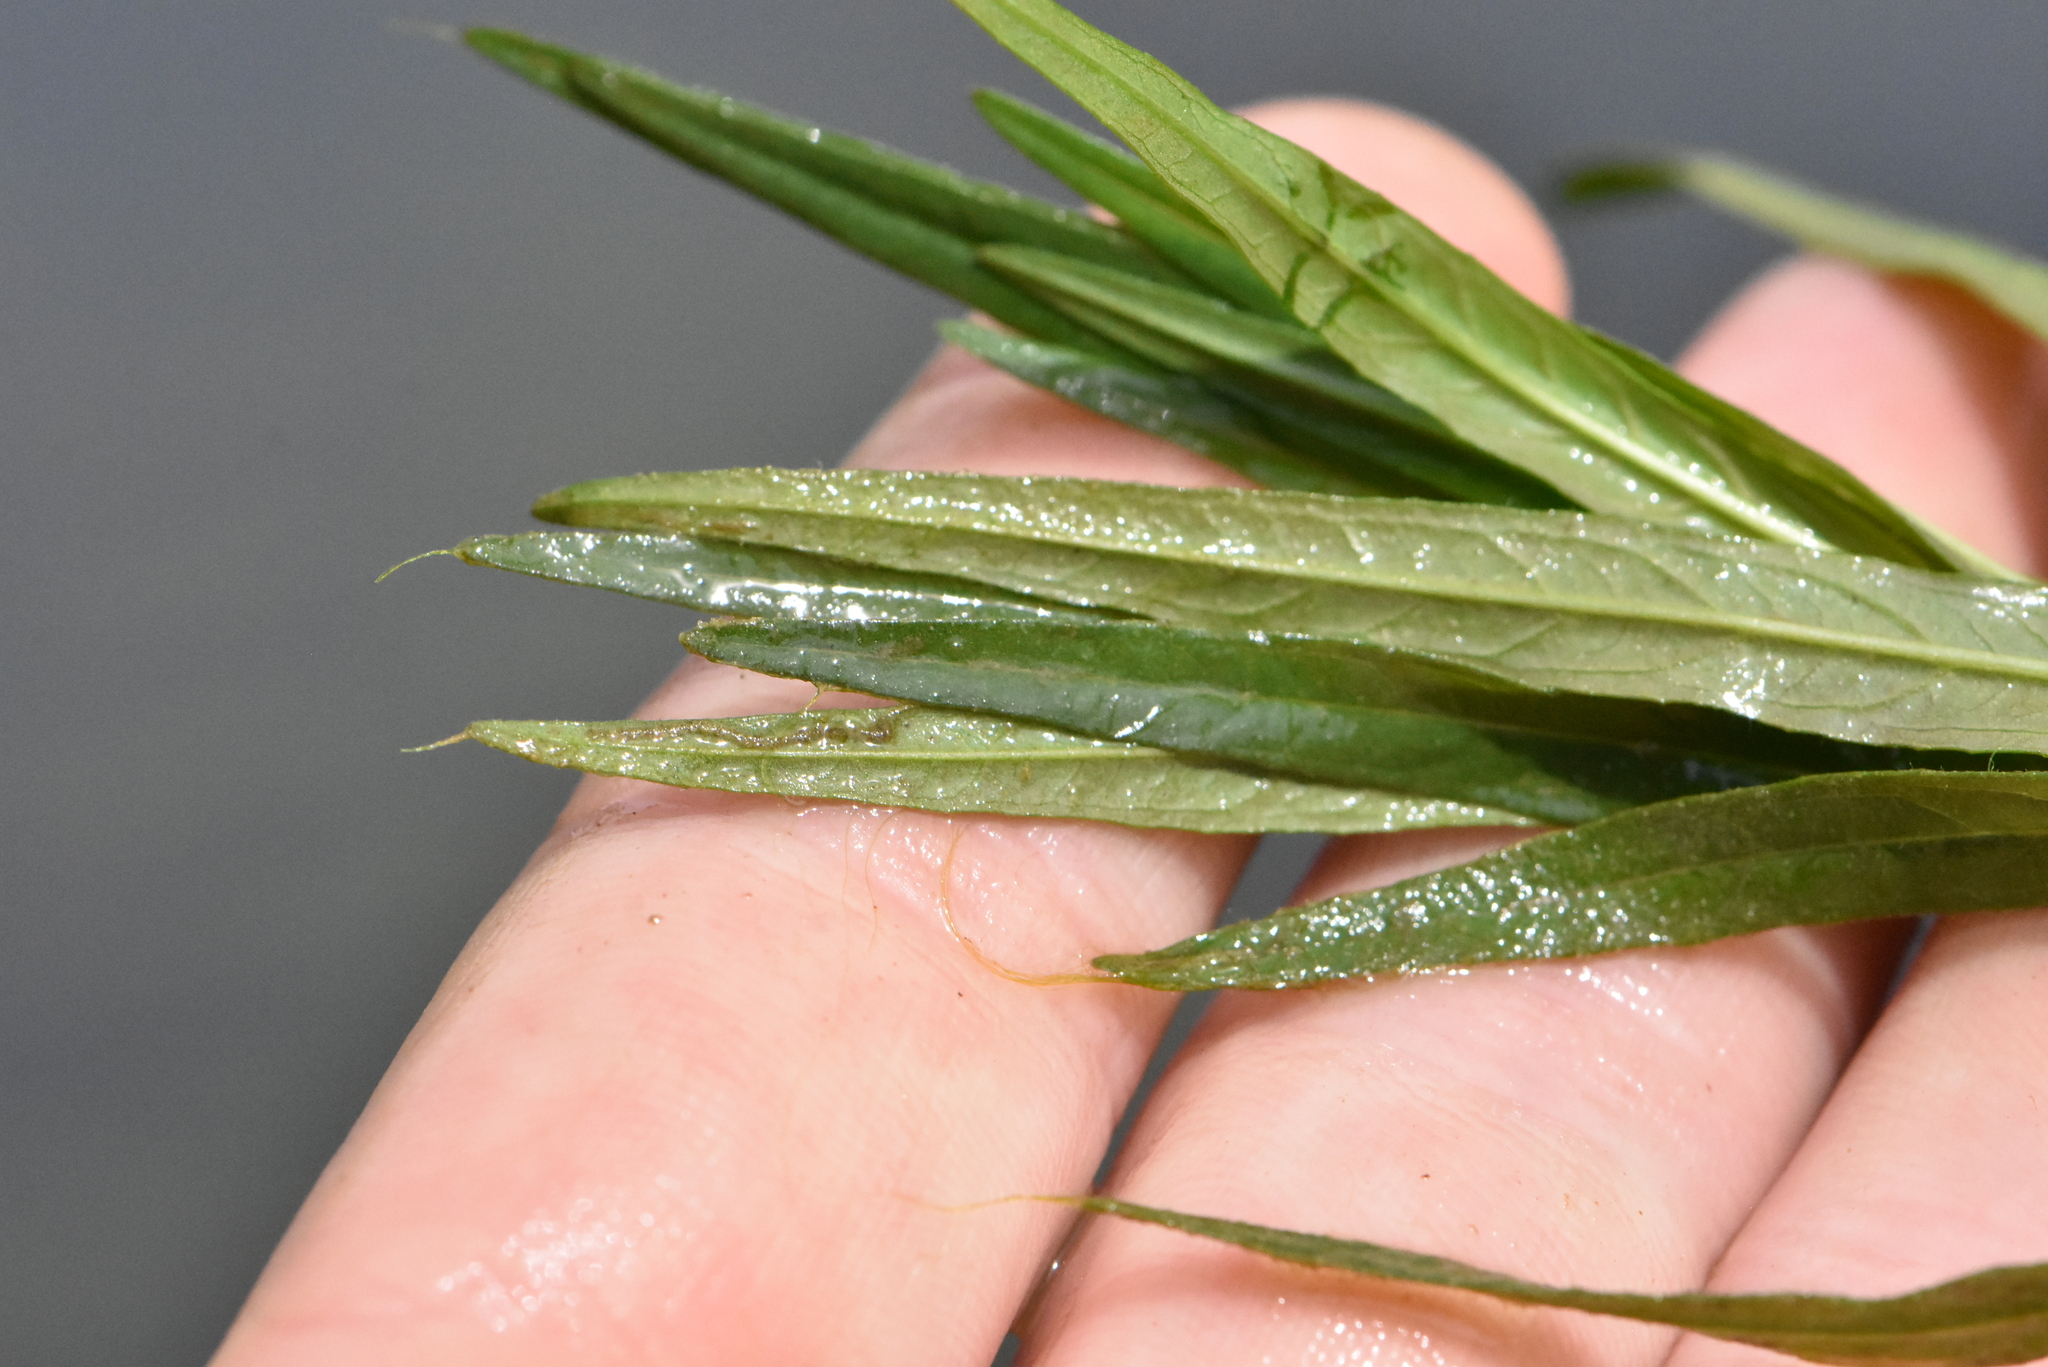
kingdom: Plantae
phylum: Tracheophyta
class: Magnoliopsida
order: Myrtales
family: Lythraceae
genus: Lythrum
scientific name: Lythrum salicaria
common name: Purple loosestrife
